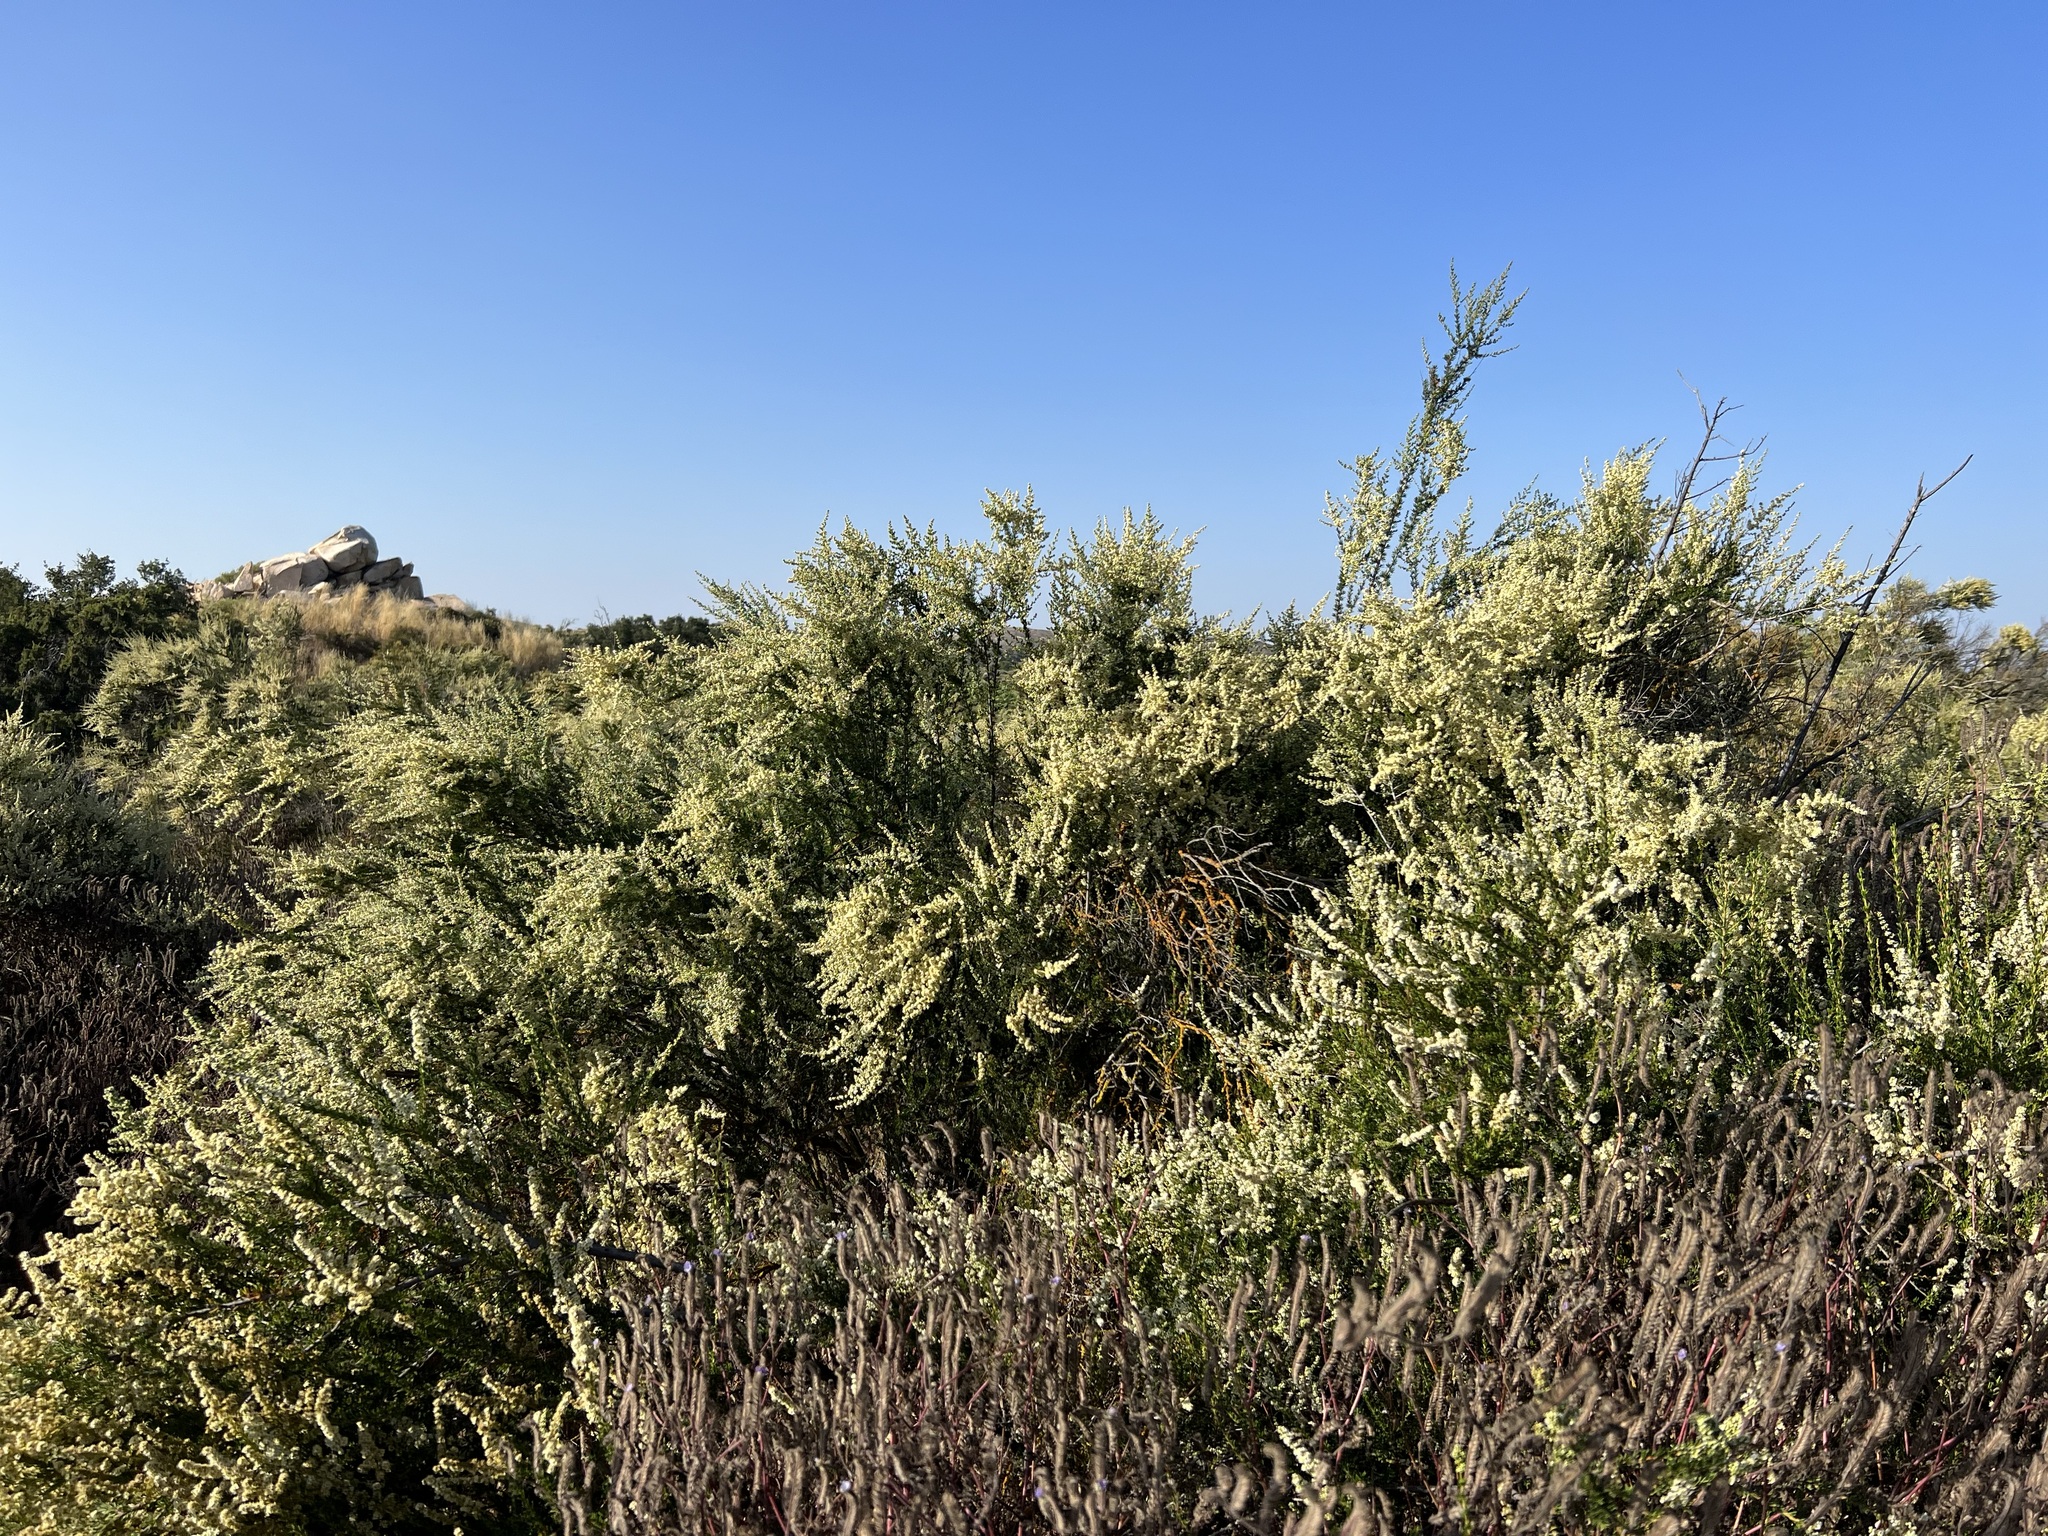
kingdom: Plantae
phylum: Tracheophyta
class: Magnoliopsida
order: Rosales
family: Rosaceae
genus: Adenostoma
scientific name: Adenostoma fasciculatum
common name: Chamise
